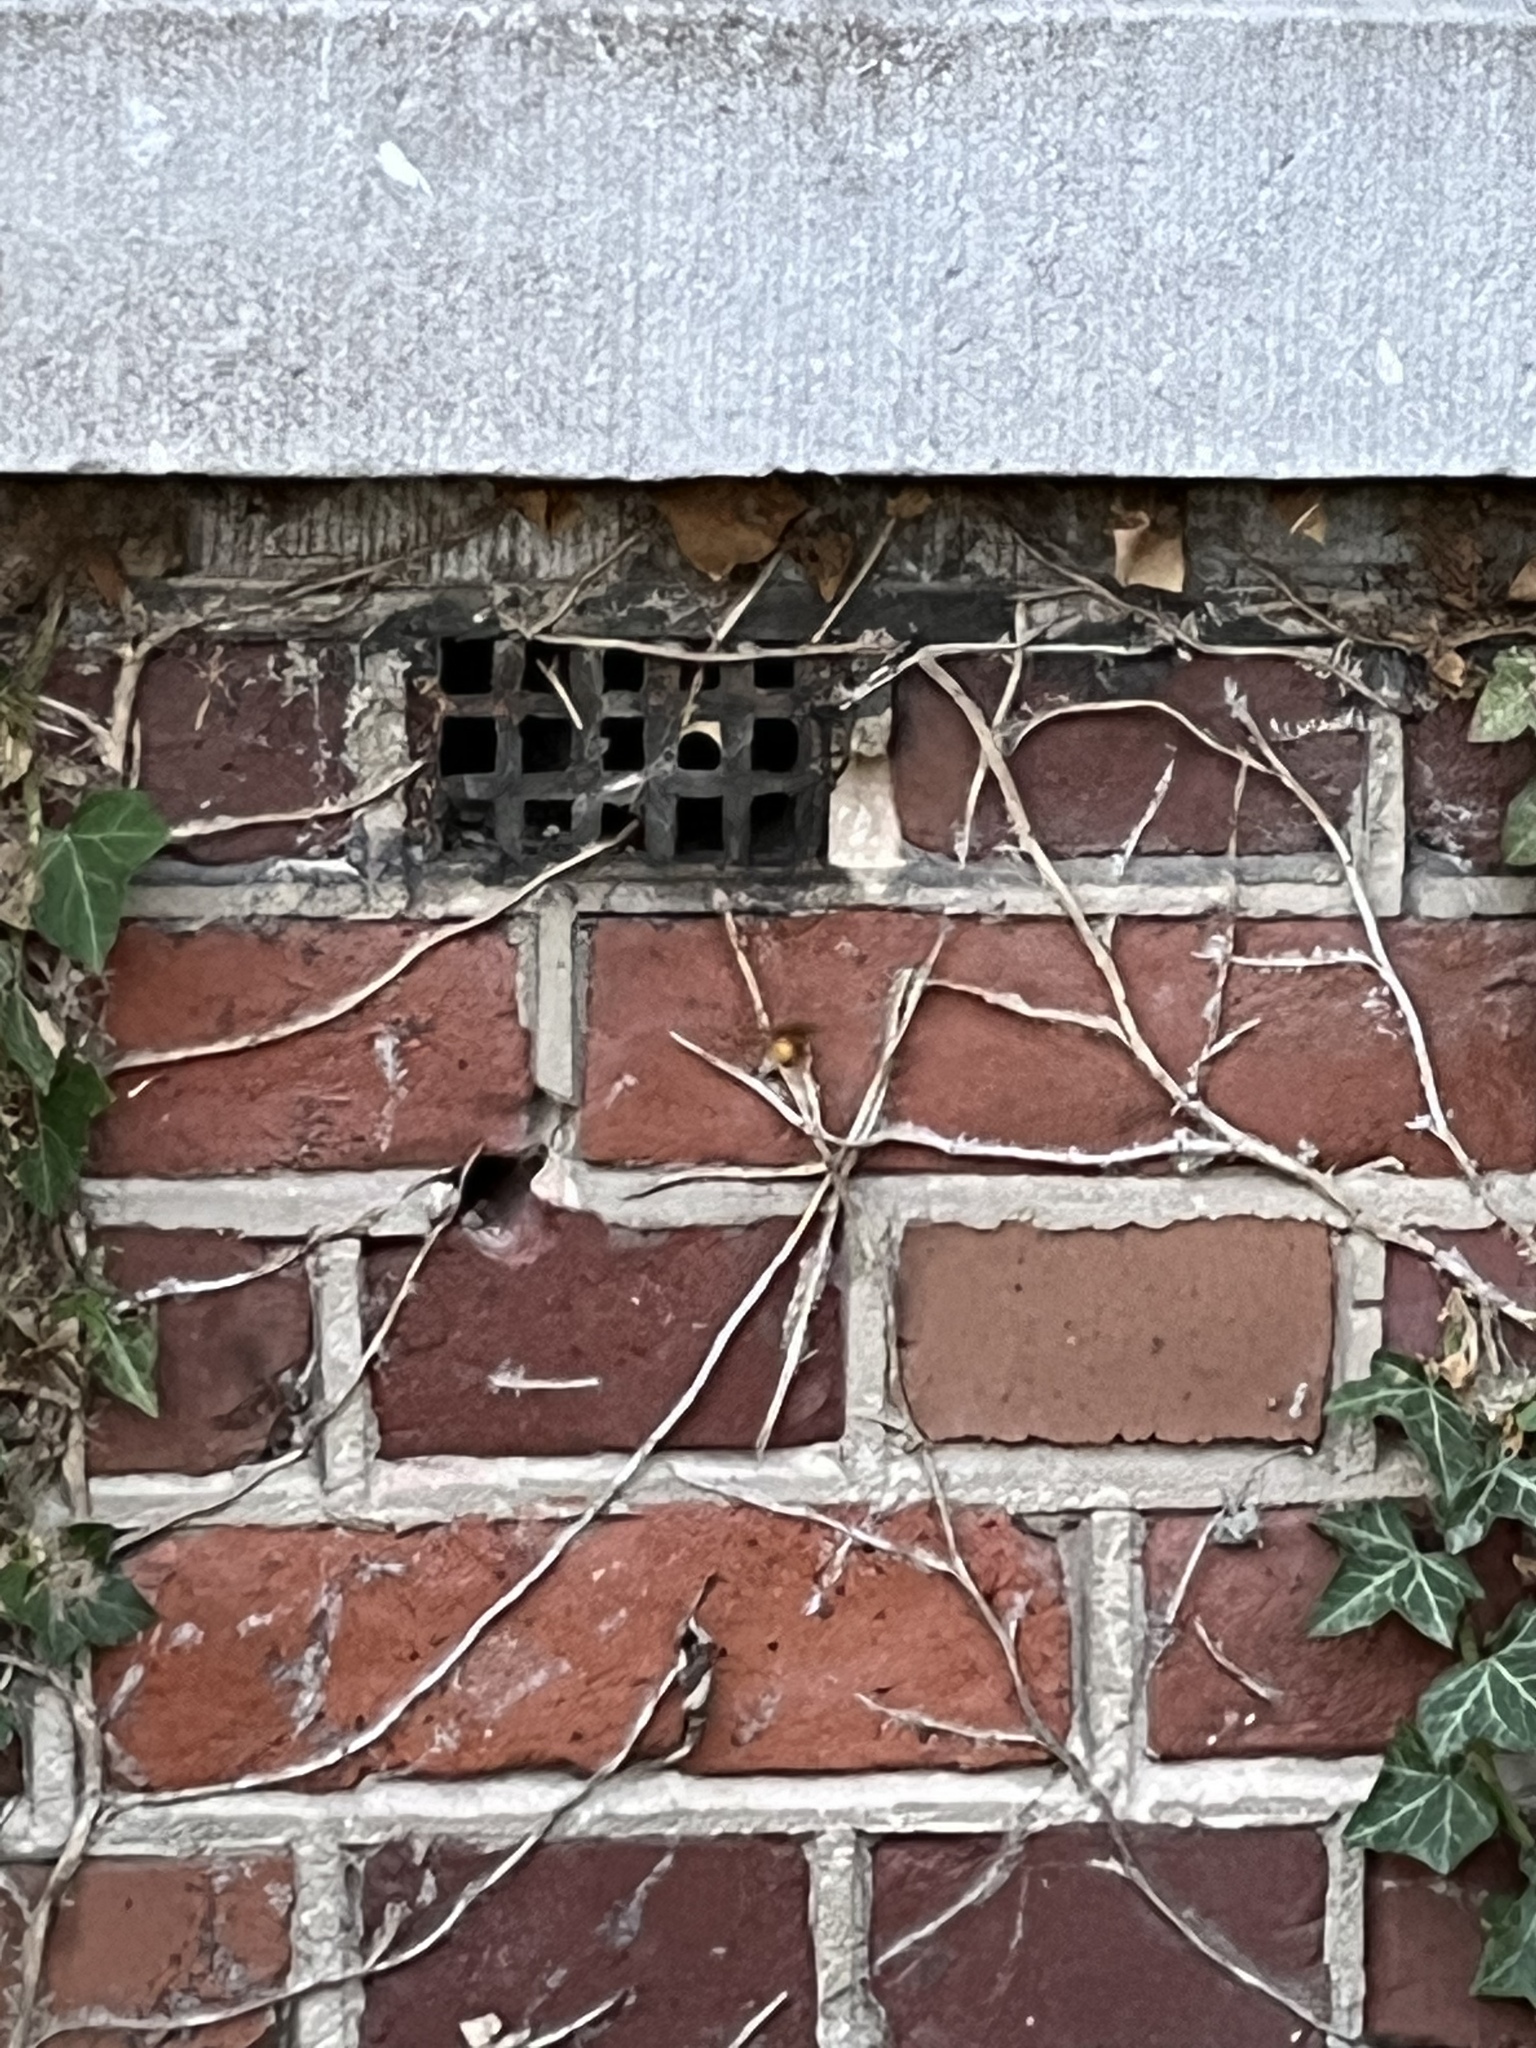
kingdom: Animalia
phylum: Arthropoda
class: Insecta
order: Hymenoptera
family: Vespidae
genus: Vespa
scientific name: Vespa crabro
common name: Hornet
